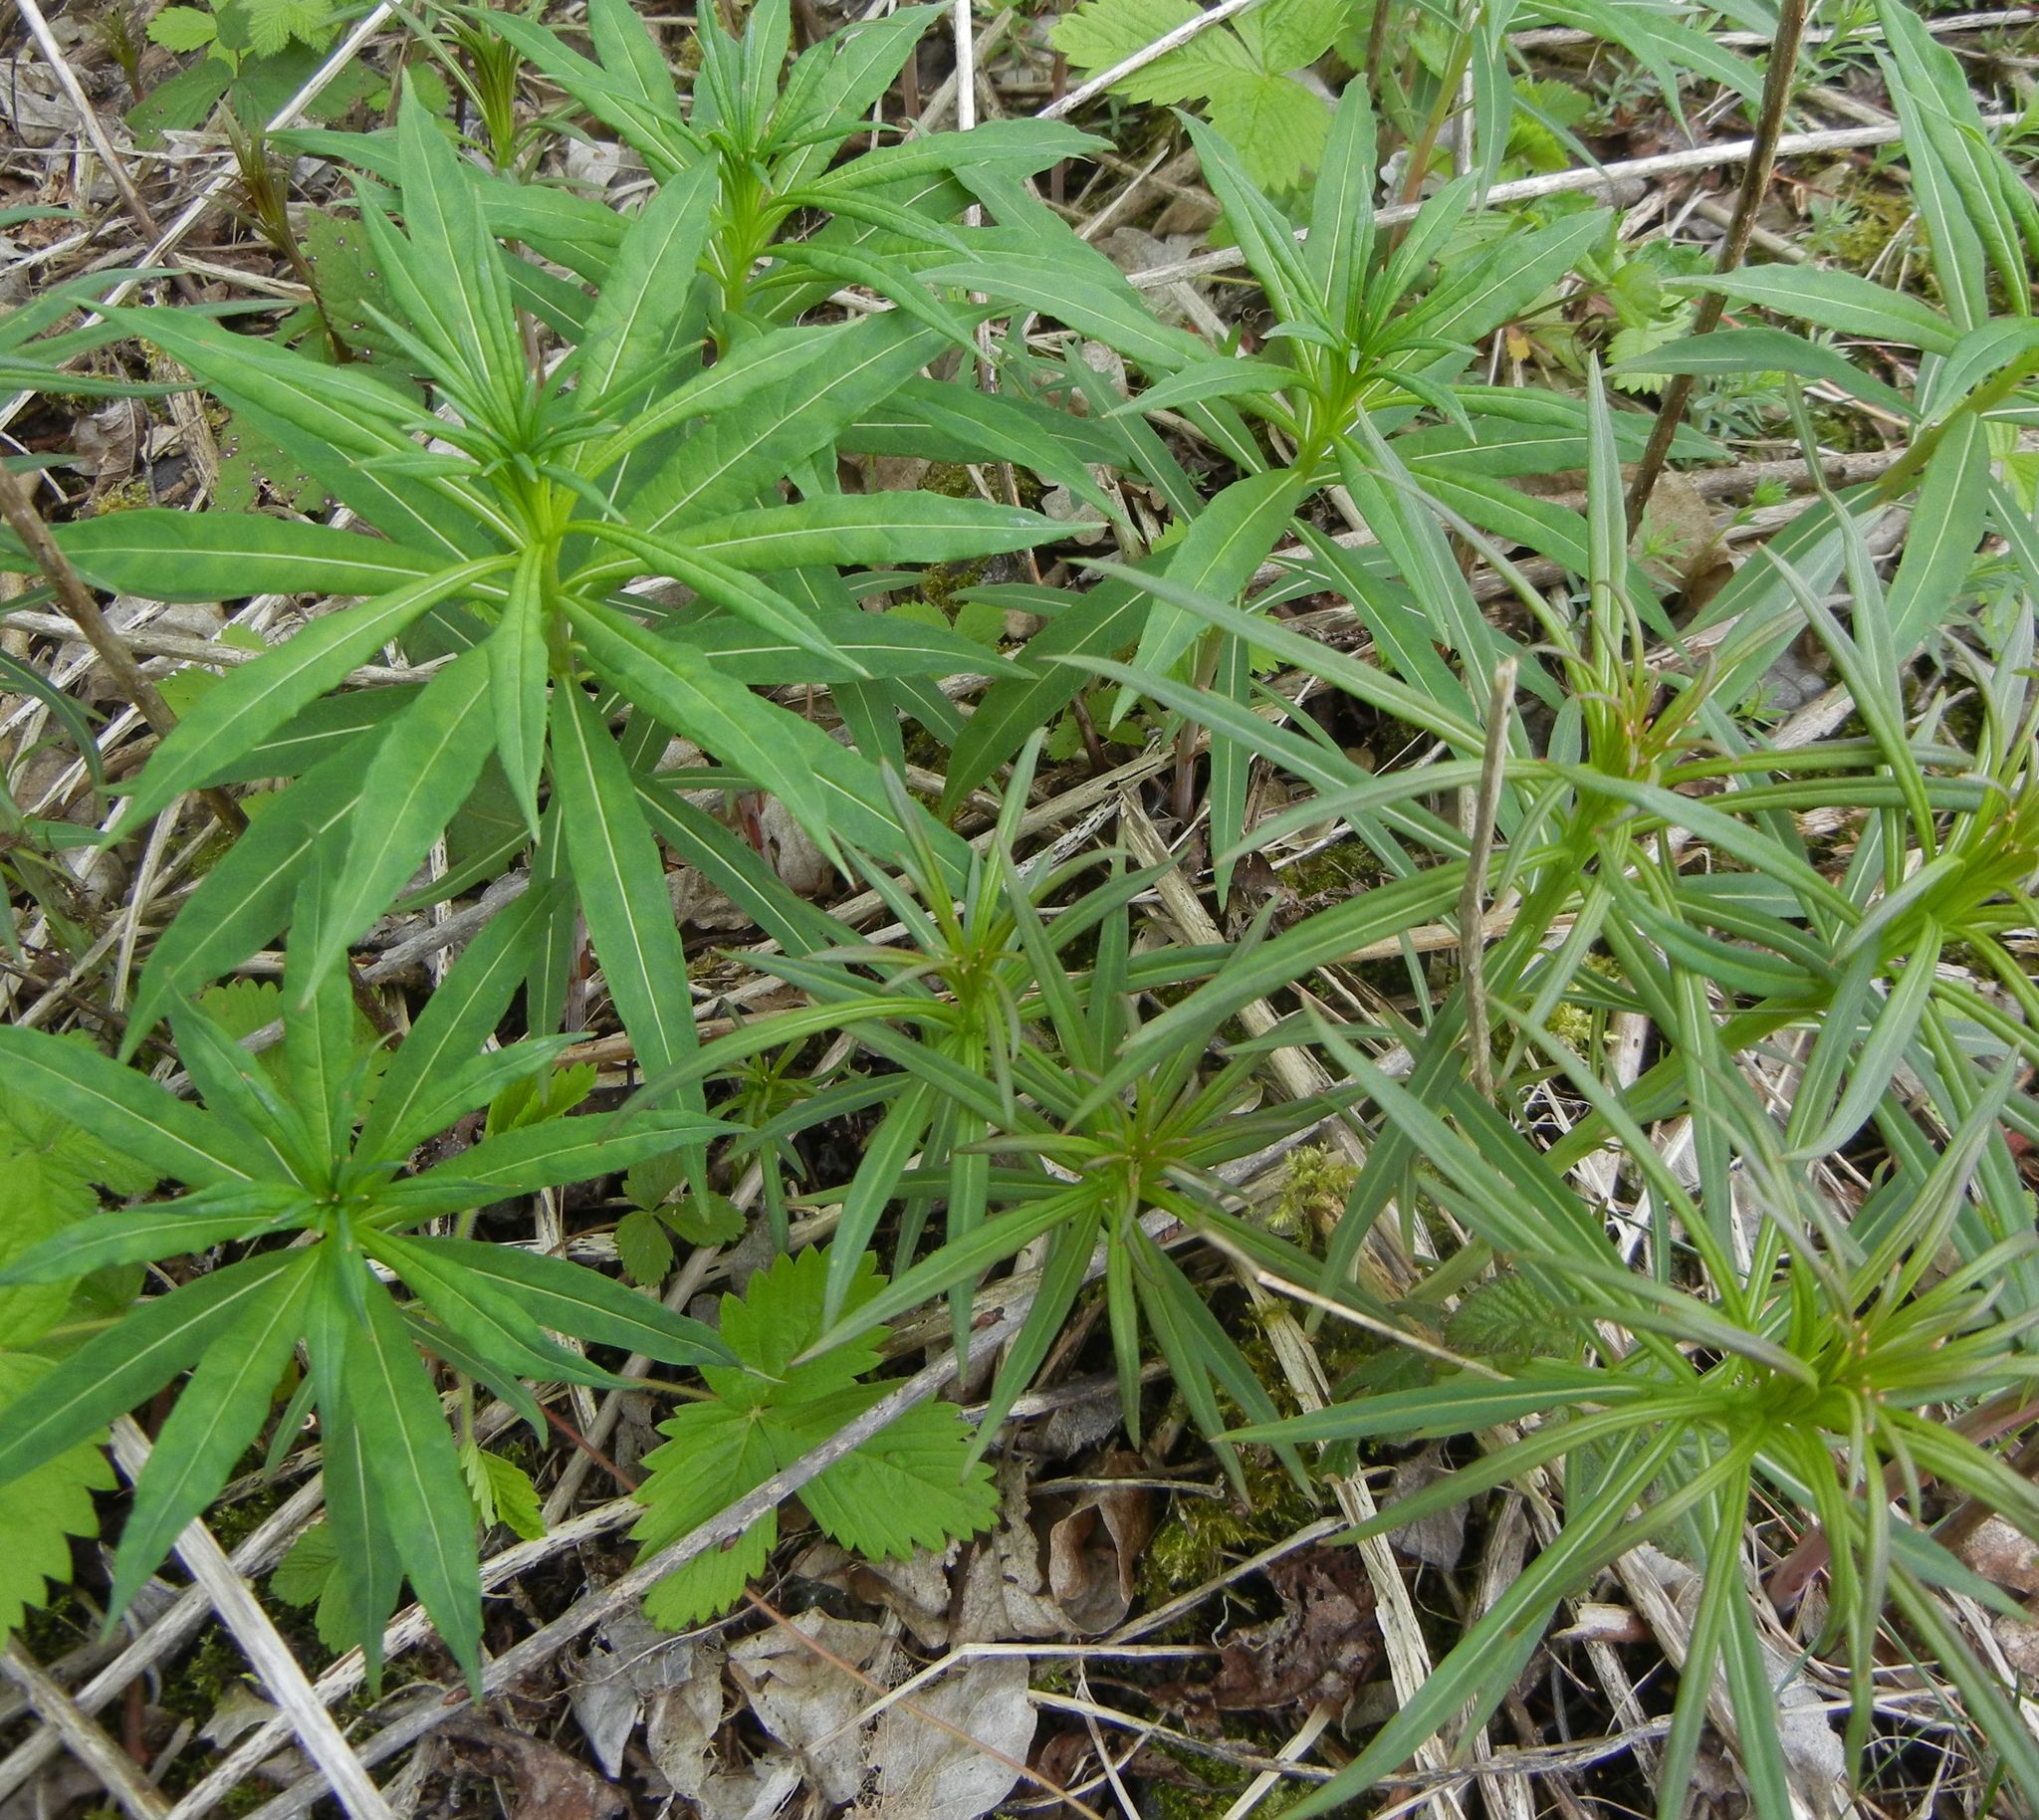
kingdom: Plantae
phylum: Tracheophyta
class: Magnoliopsida
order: Myrtales
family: Onagraceae
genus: Chamaenerion
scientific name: Chamaenerion angustifolium
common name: Fireweed
